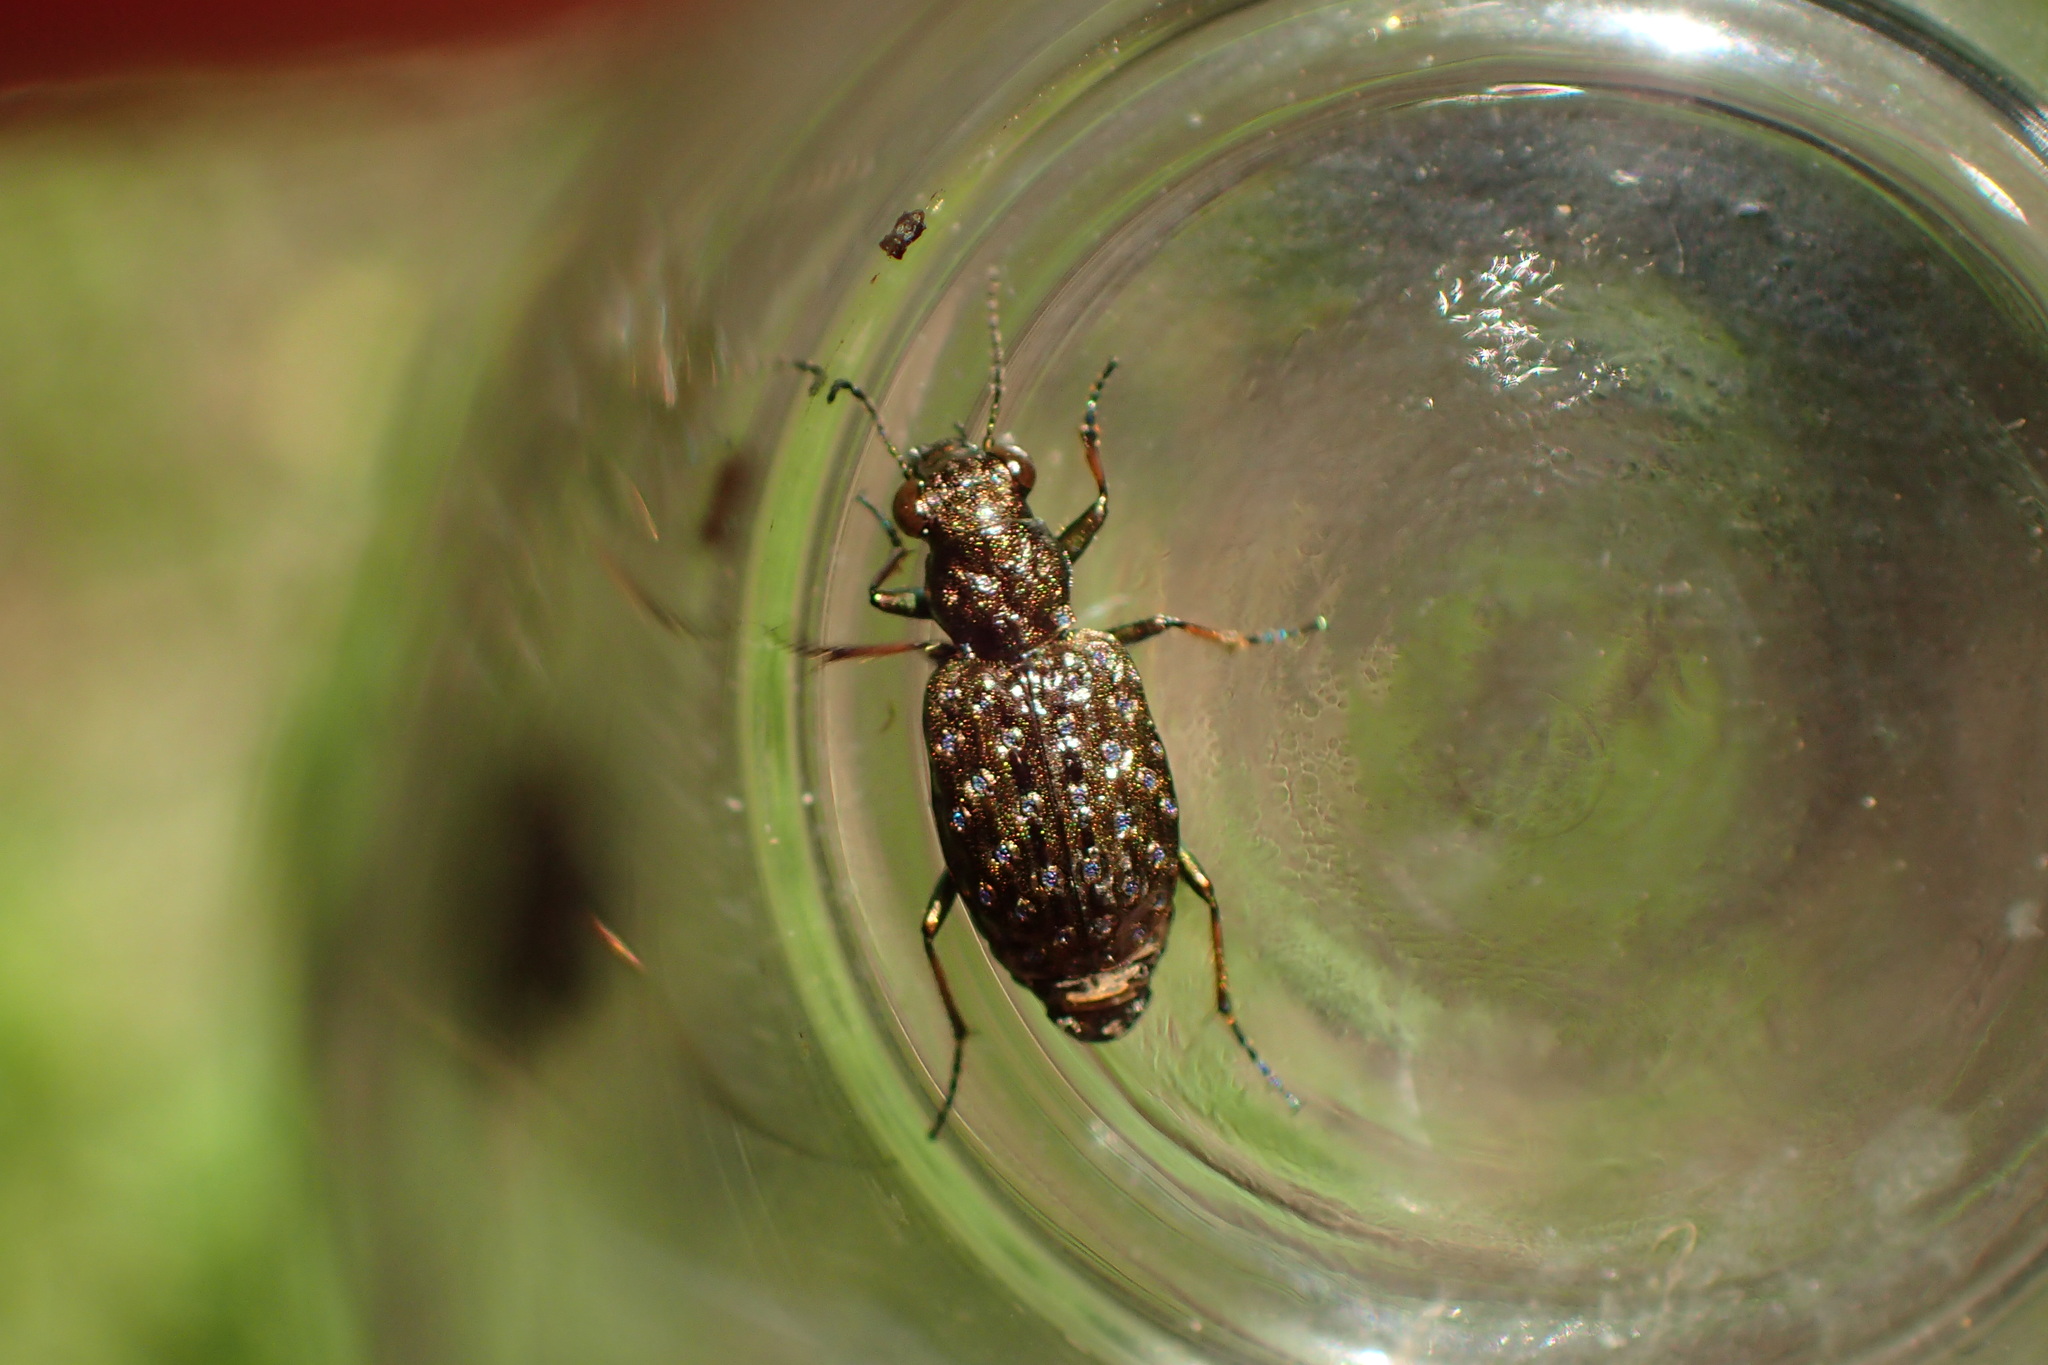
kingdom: Animalia
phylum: Arthropoda
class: Insecta
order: Coleoptera
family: Carabidae
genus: Elaphrus
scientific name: Elaphrus cupreus
